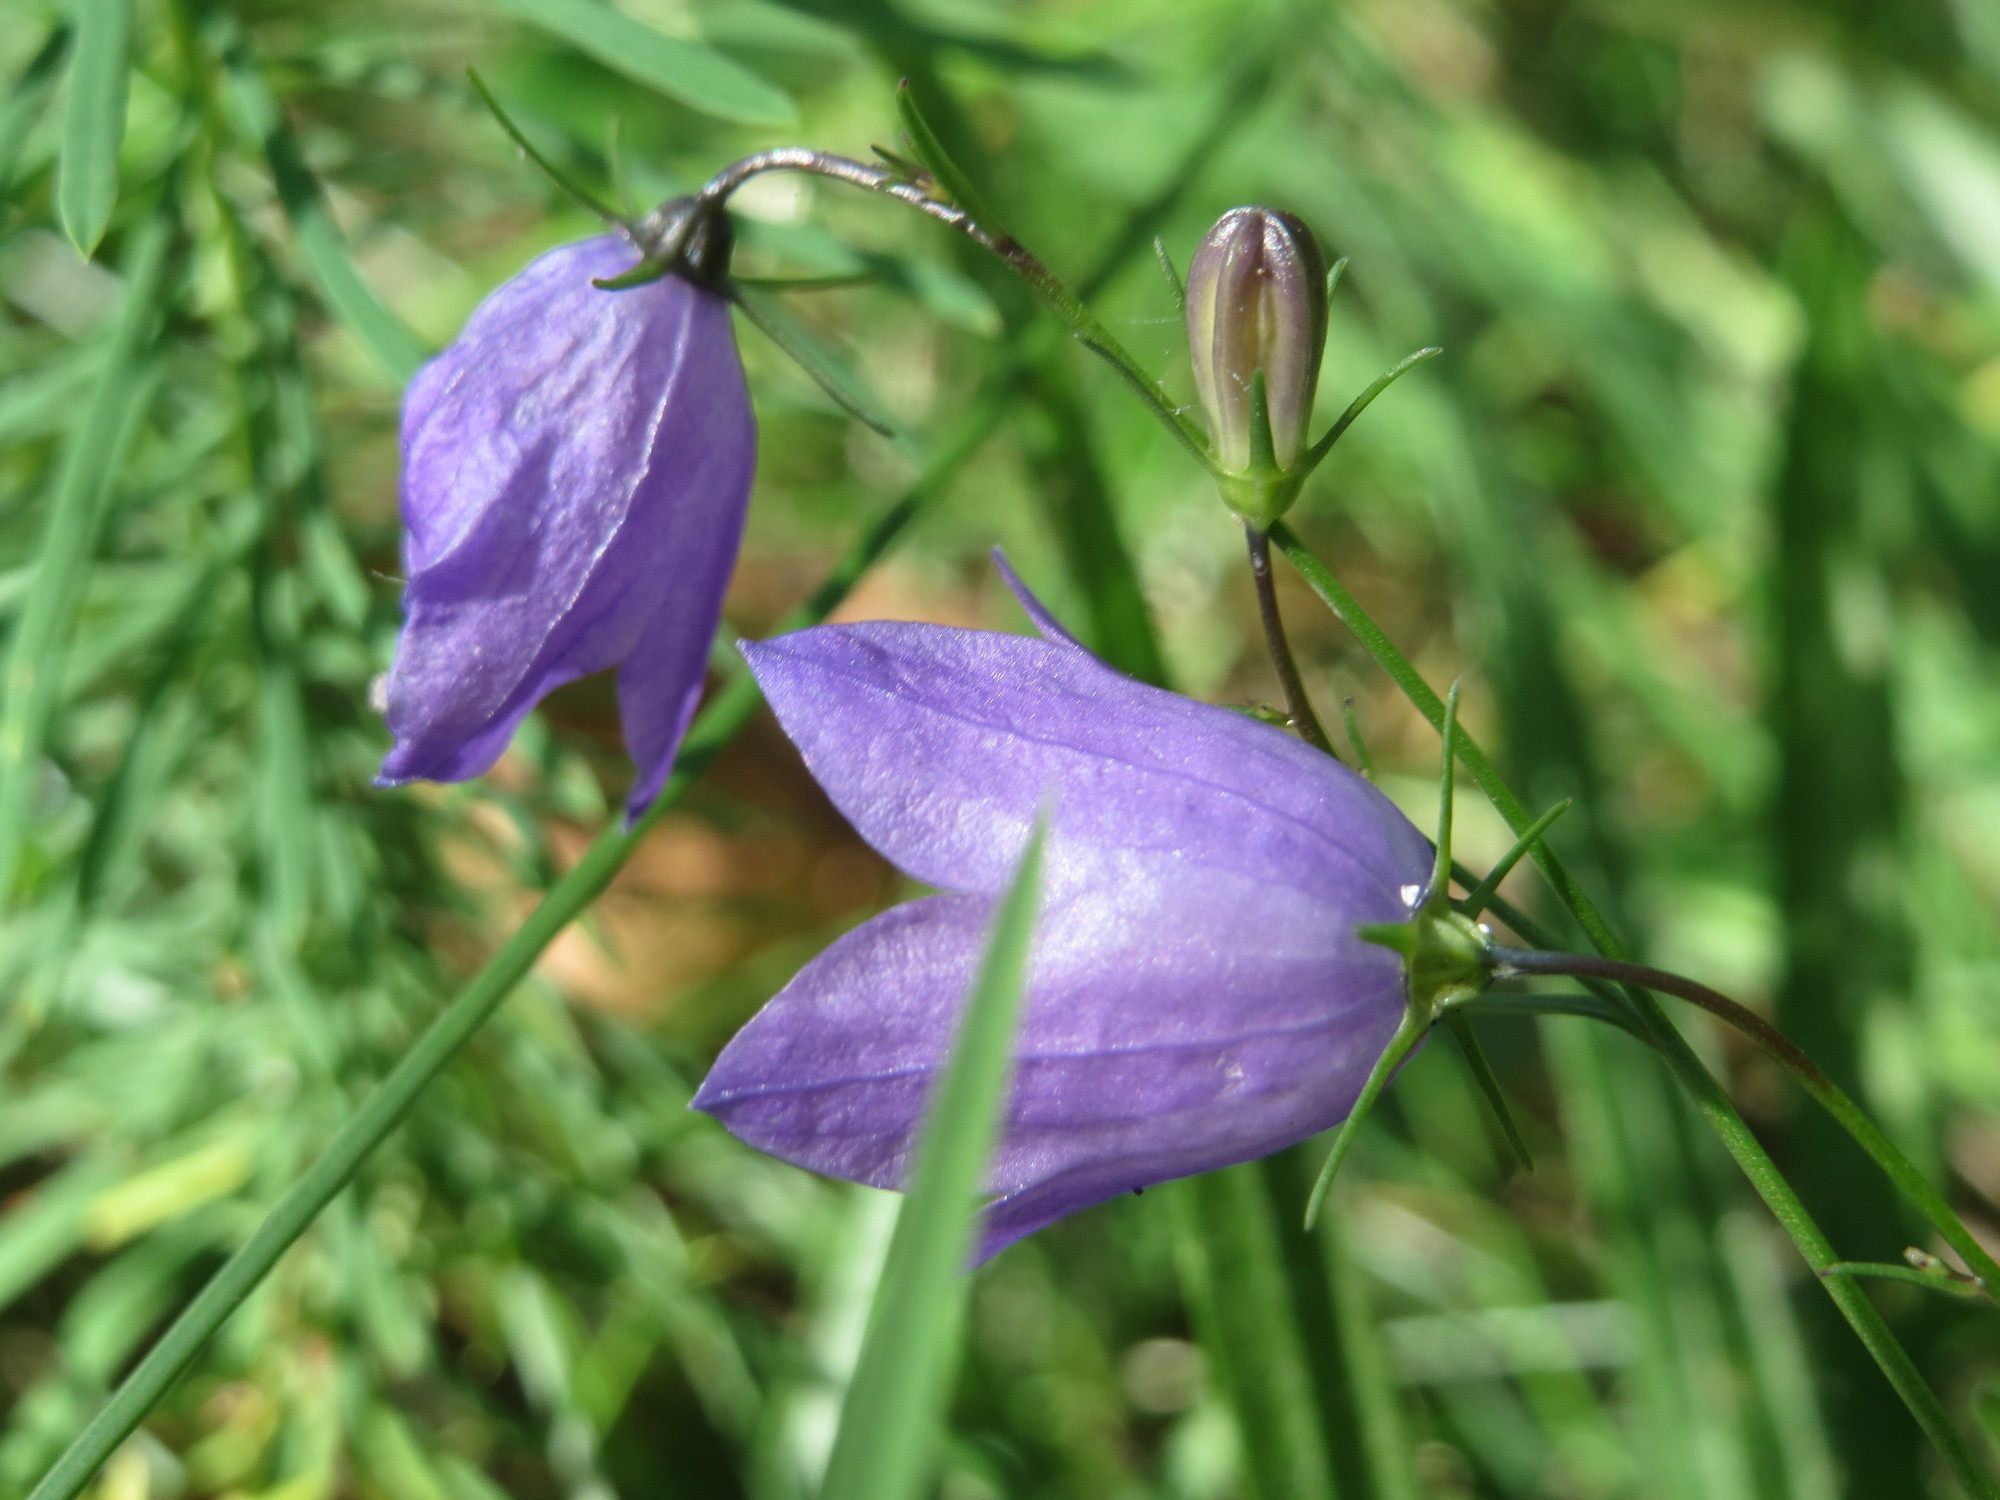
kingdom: Plantae
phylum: Tracheophyta
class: Magnoliopsida
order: Asterales
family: Campanulaceae
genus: Campanula
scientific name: Campanula rotundifolia
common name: Harebell
